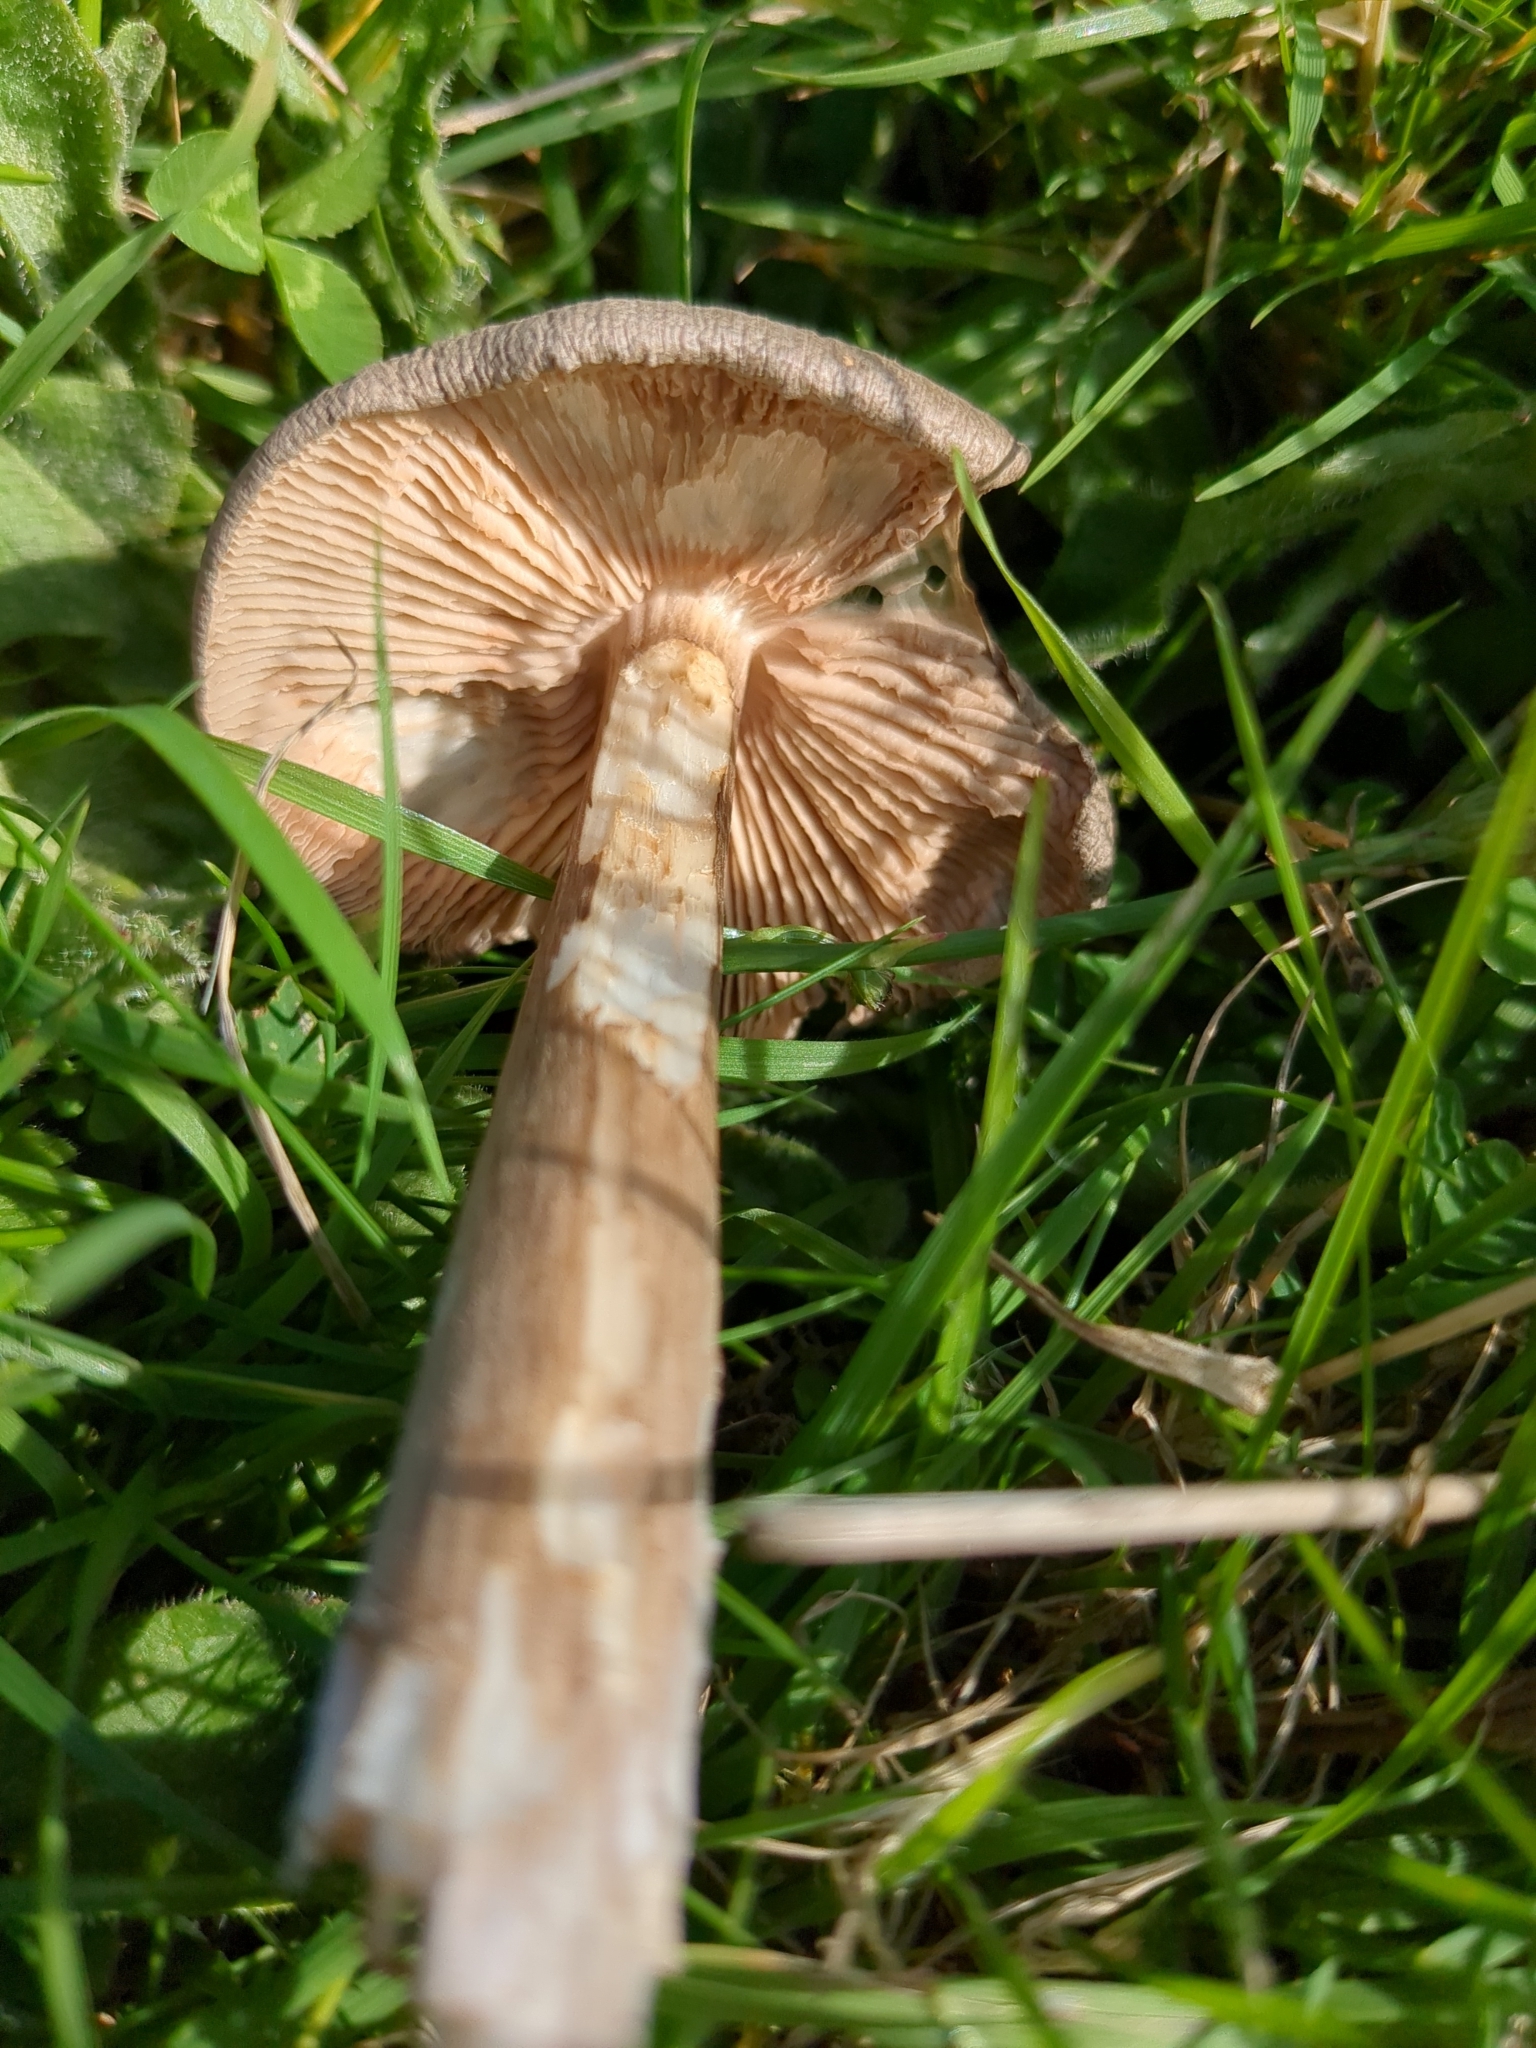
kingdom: Fungi
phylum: Basidiomycota
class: Agaricomycetes
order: Agaricales
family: Entolomataceae
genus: Entoloma
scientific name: Entoloma porphyrophaeum
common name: Lilac pinkgill
